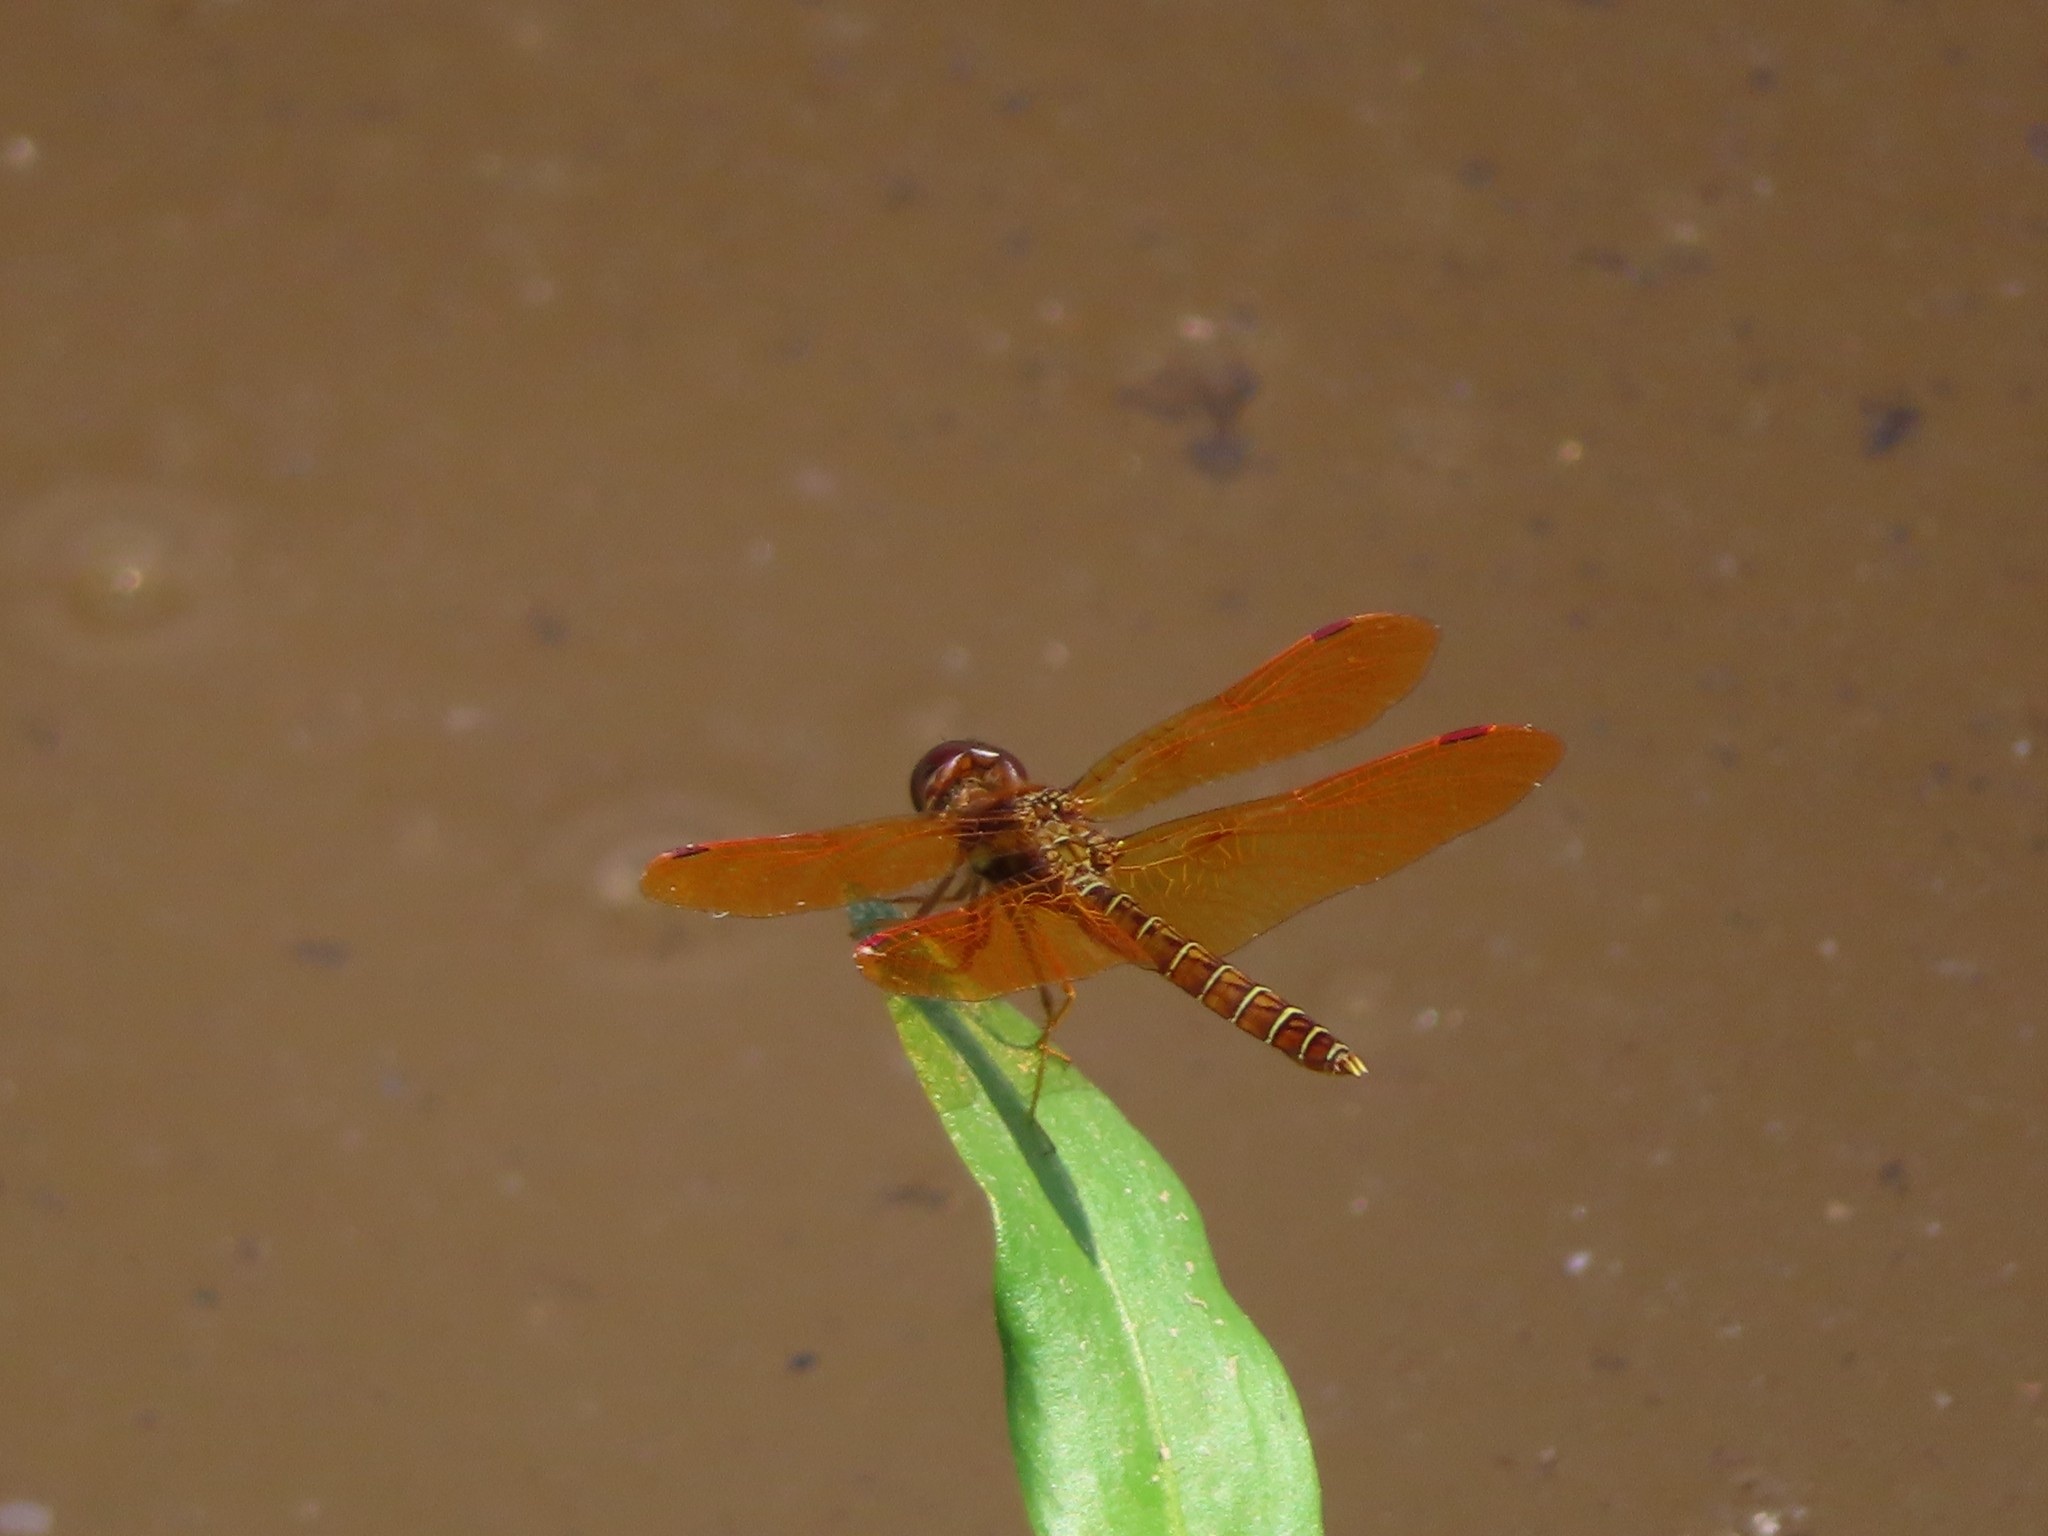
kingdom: Animalia
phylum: Arthropoda
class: Insecta
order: Odonata
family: Libellulidae
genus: Perithemis
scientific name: Perithemis tenera
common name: Eastern amberwing
